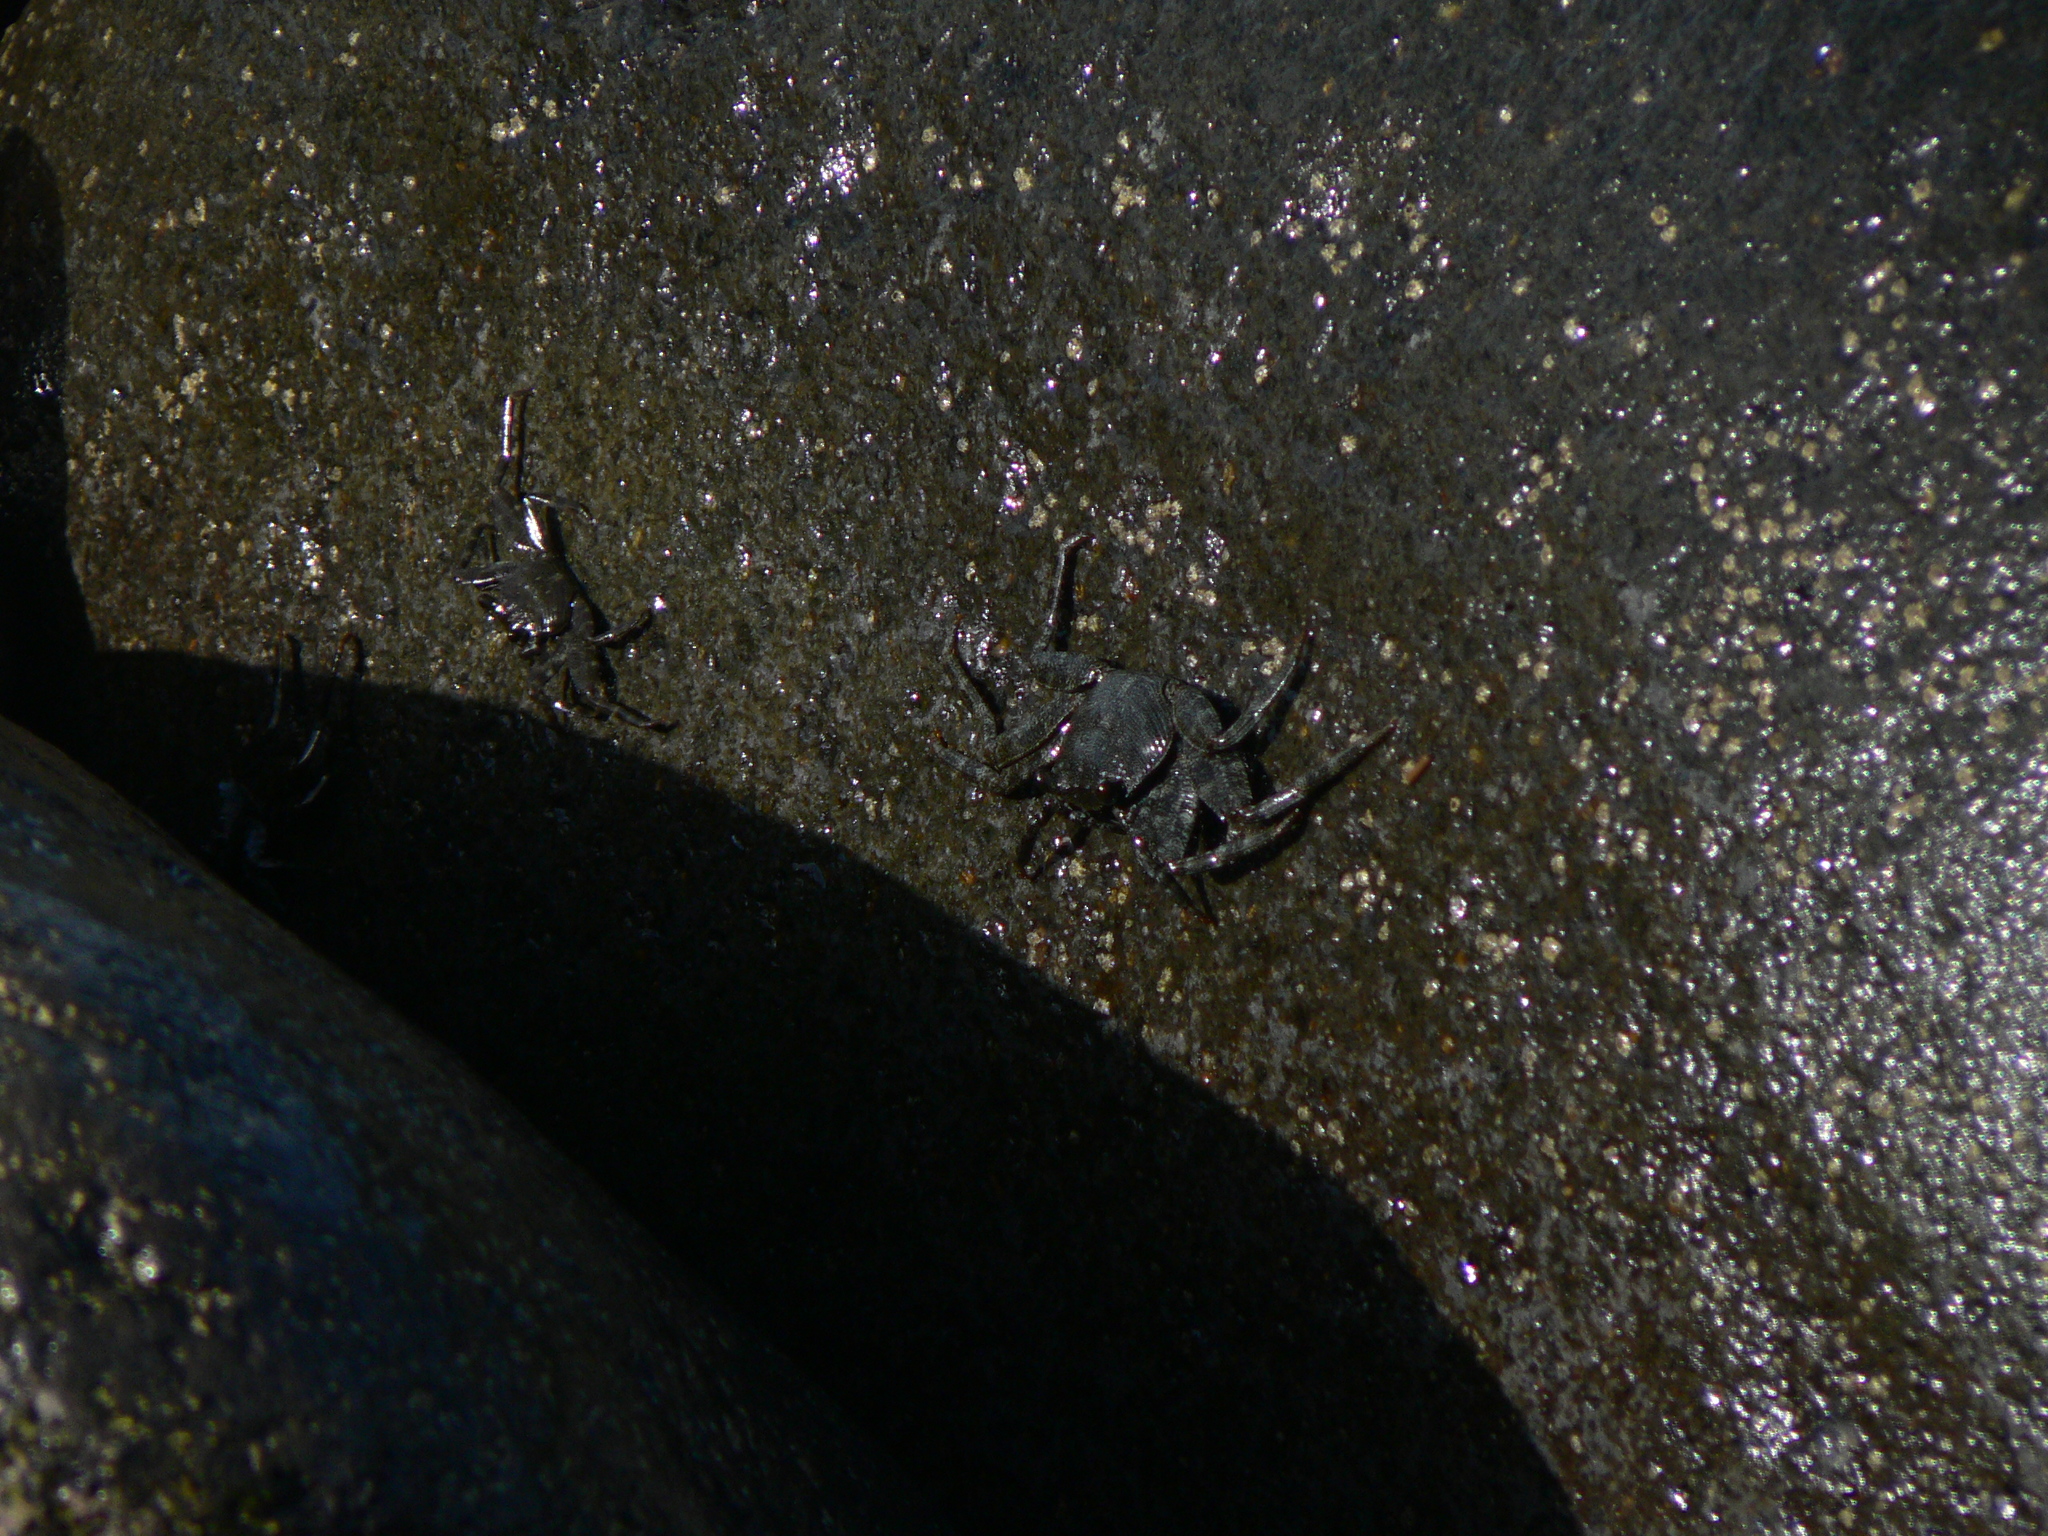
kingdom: Animalia
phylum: Arthropoda
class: Malacostraca
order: Decapoda
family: Grapsidae
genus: Grapsus
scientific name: Grapsus adscensionis
